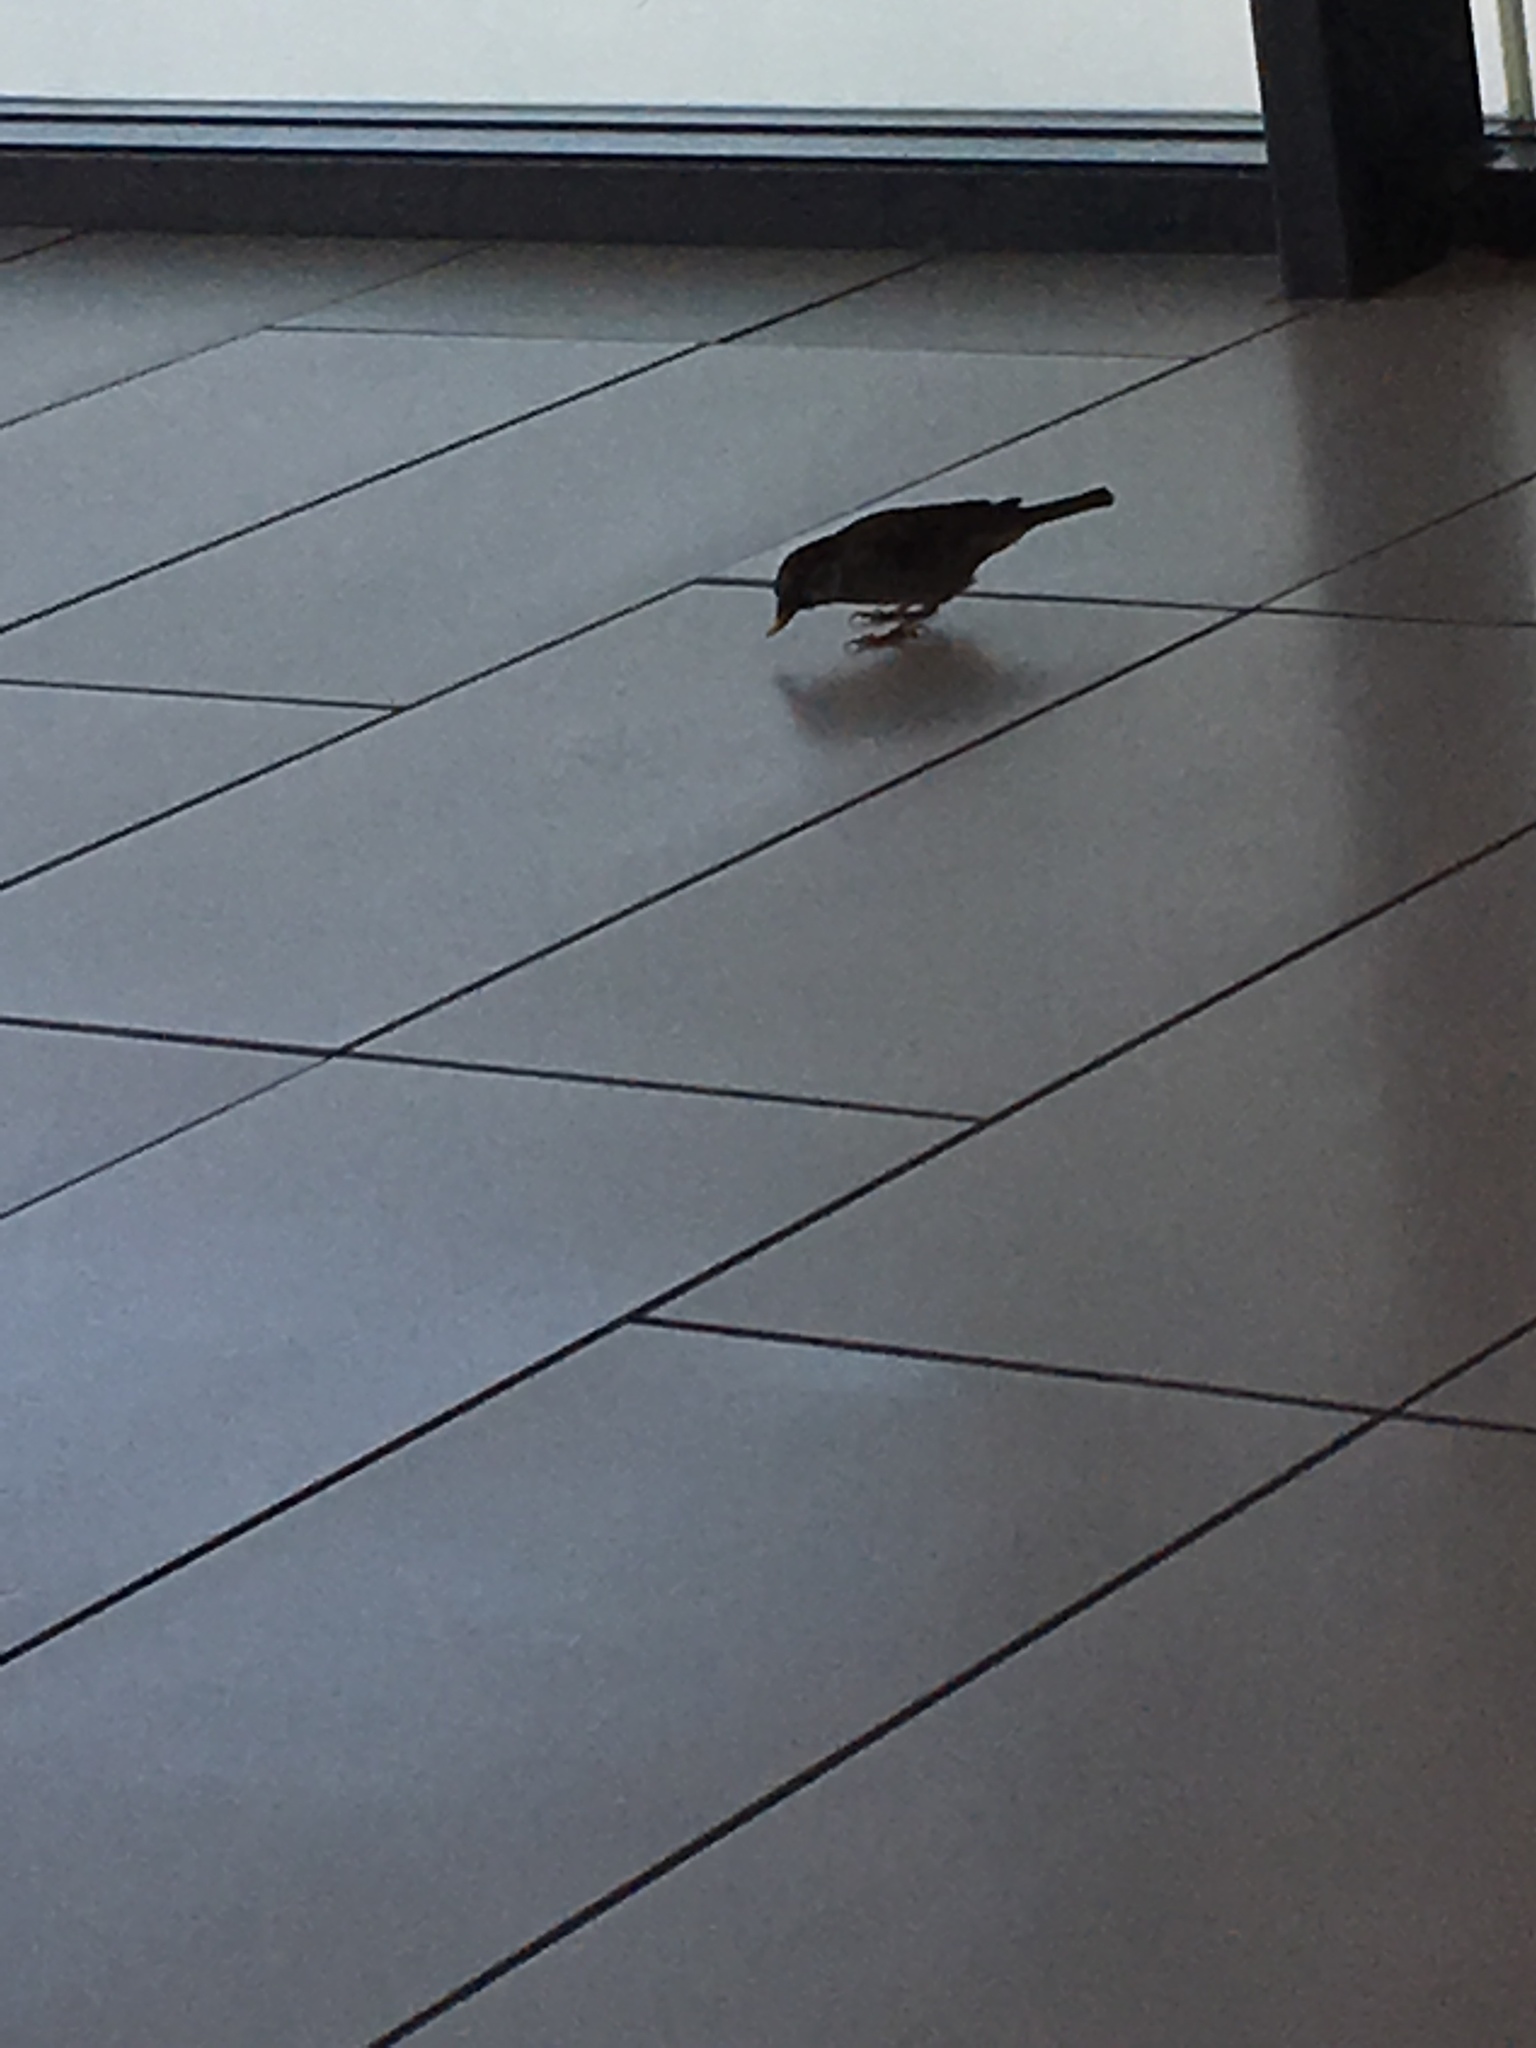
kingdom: Animalia
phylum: Chordata
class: Aves
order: Passeriformes
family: Passeridae
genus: Passer
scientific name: Passer domesticus
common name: House sparrow
